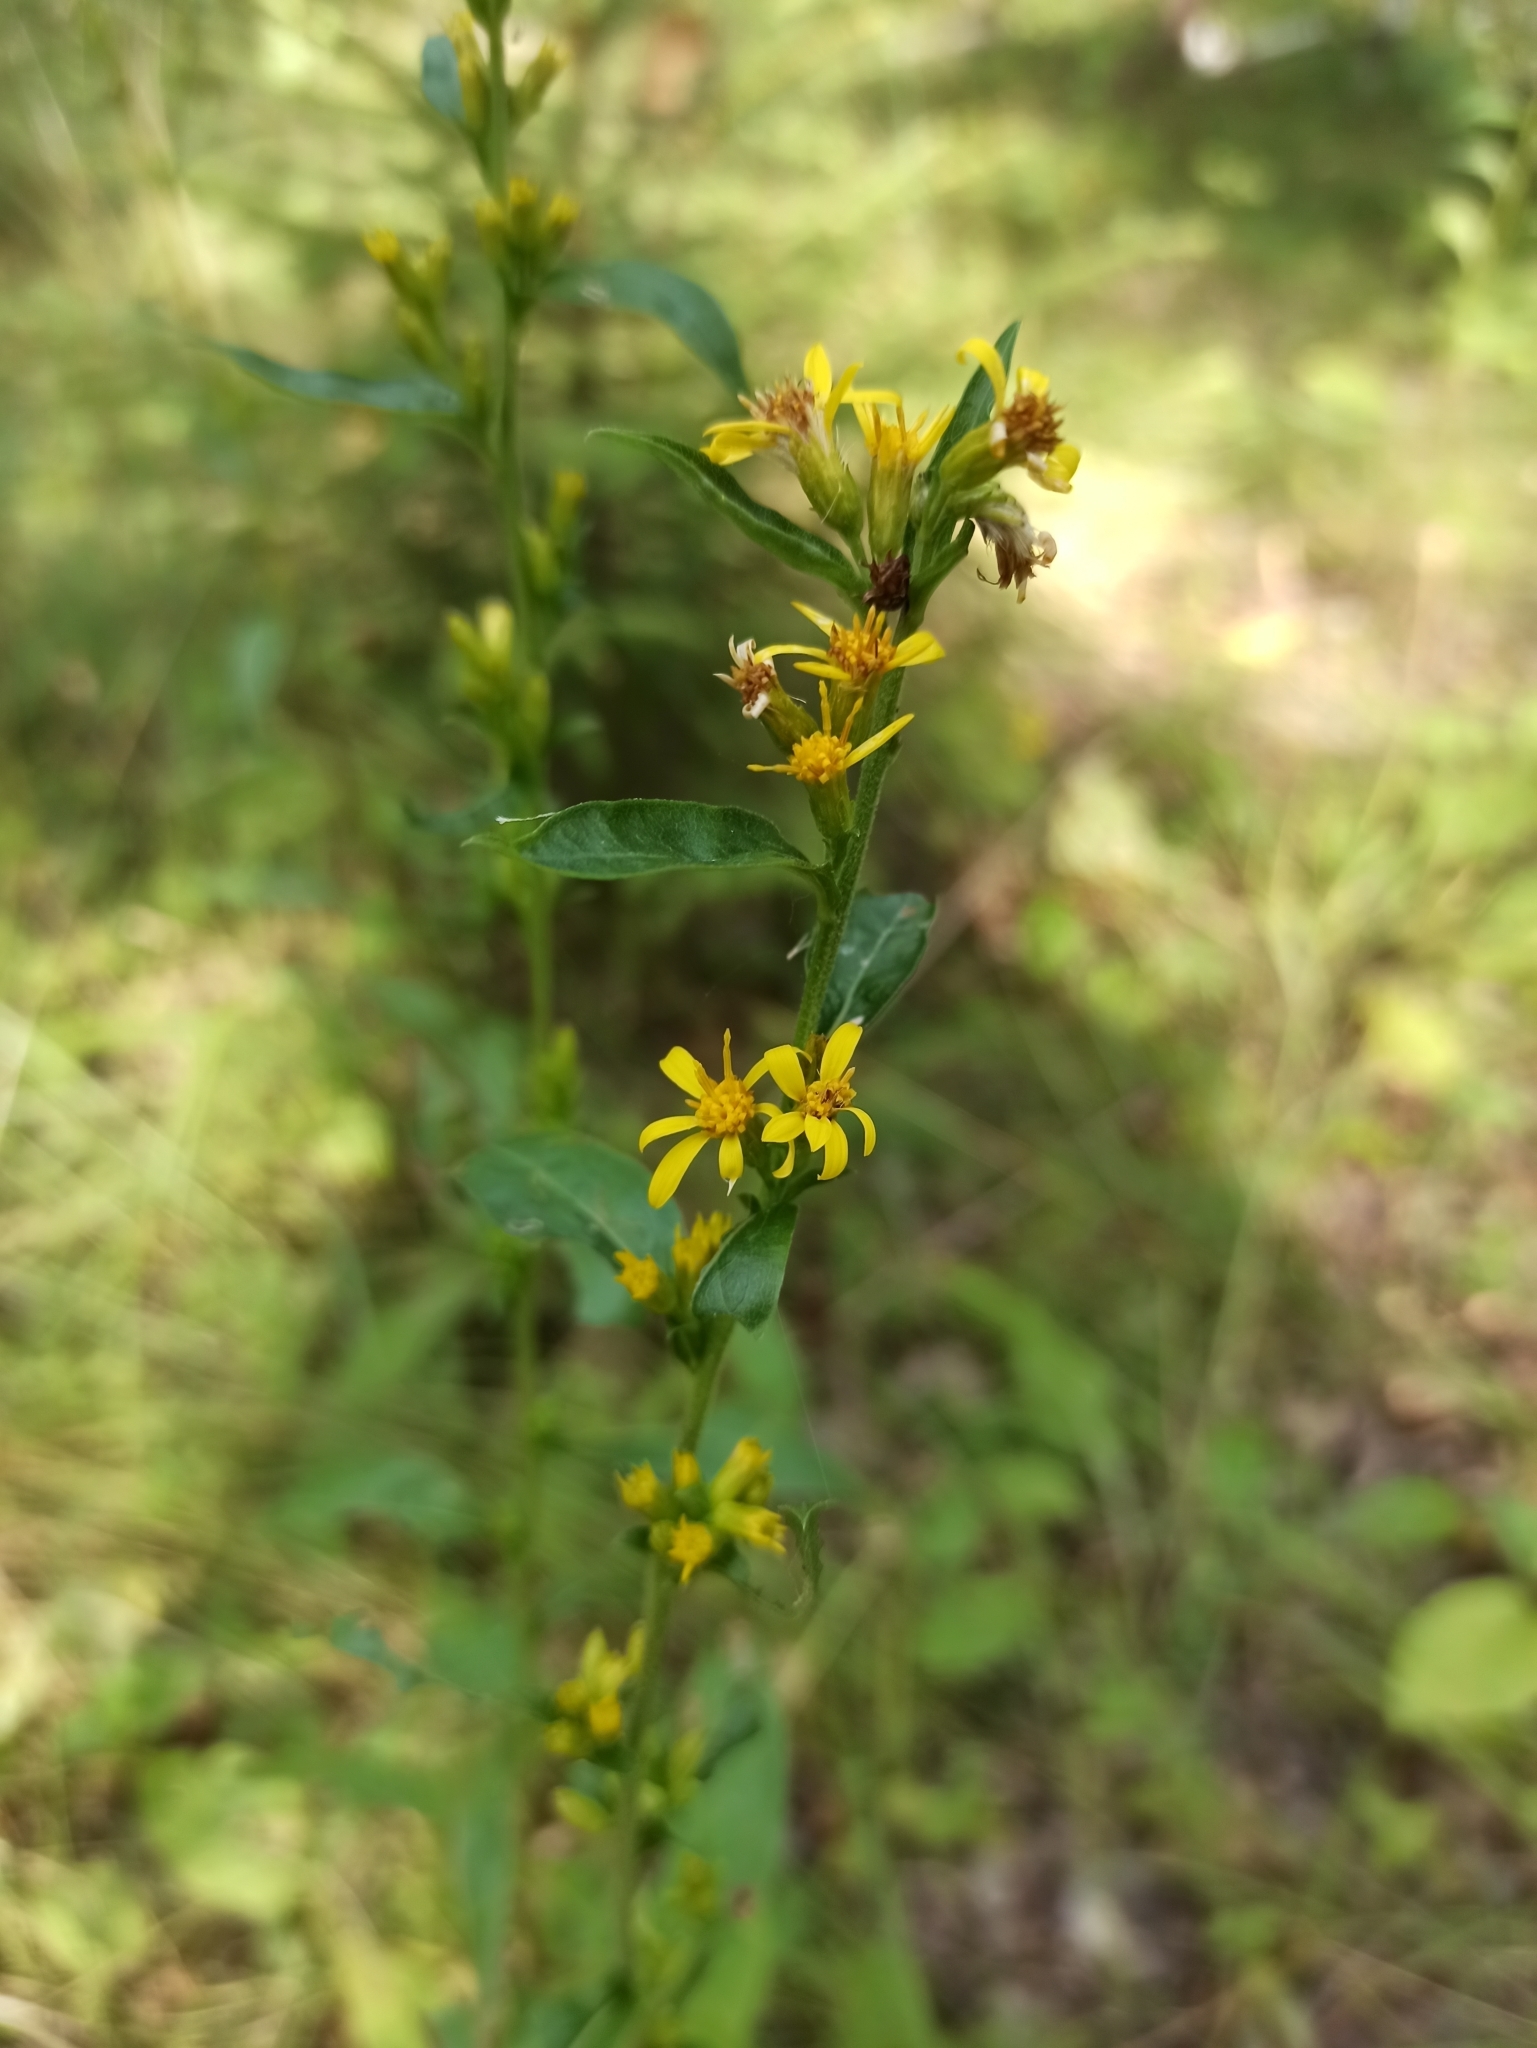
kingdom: Plantae
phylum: Tracheophyta
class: Magnoliopsida
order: Asterales
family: Asteraceae
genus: Solidago
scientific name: Solidago virgaurea
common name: Goldenrod
